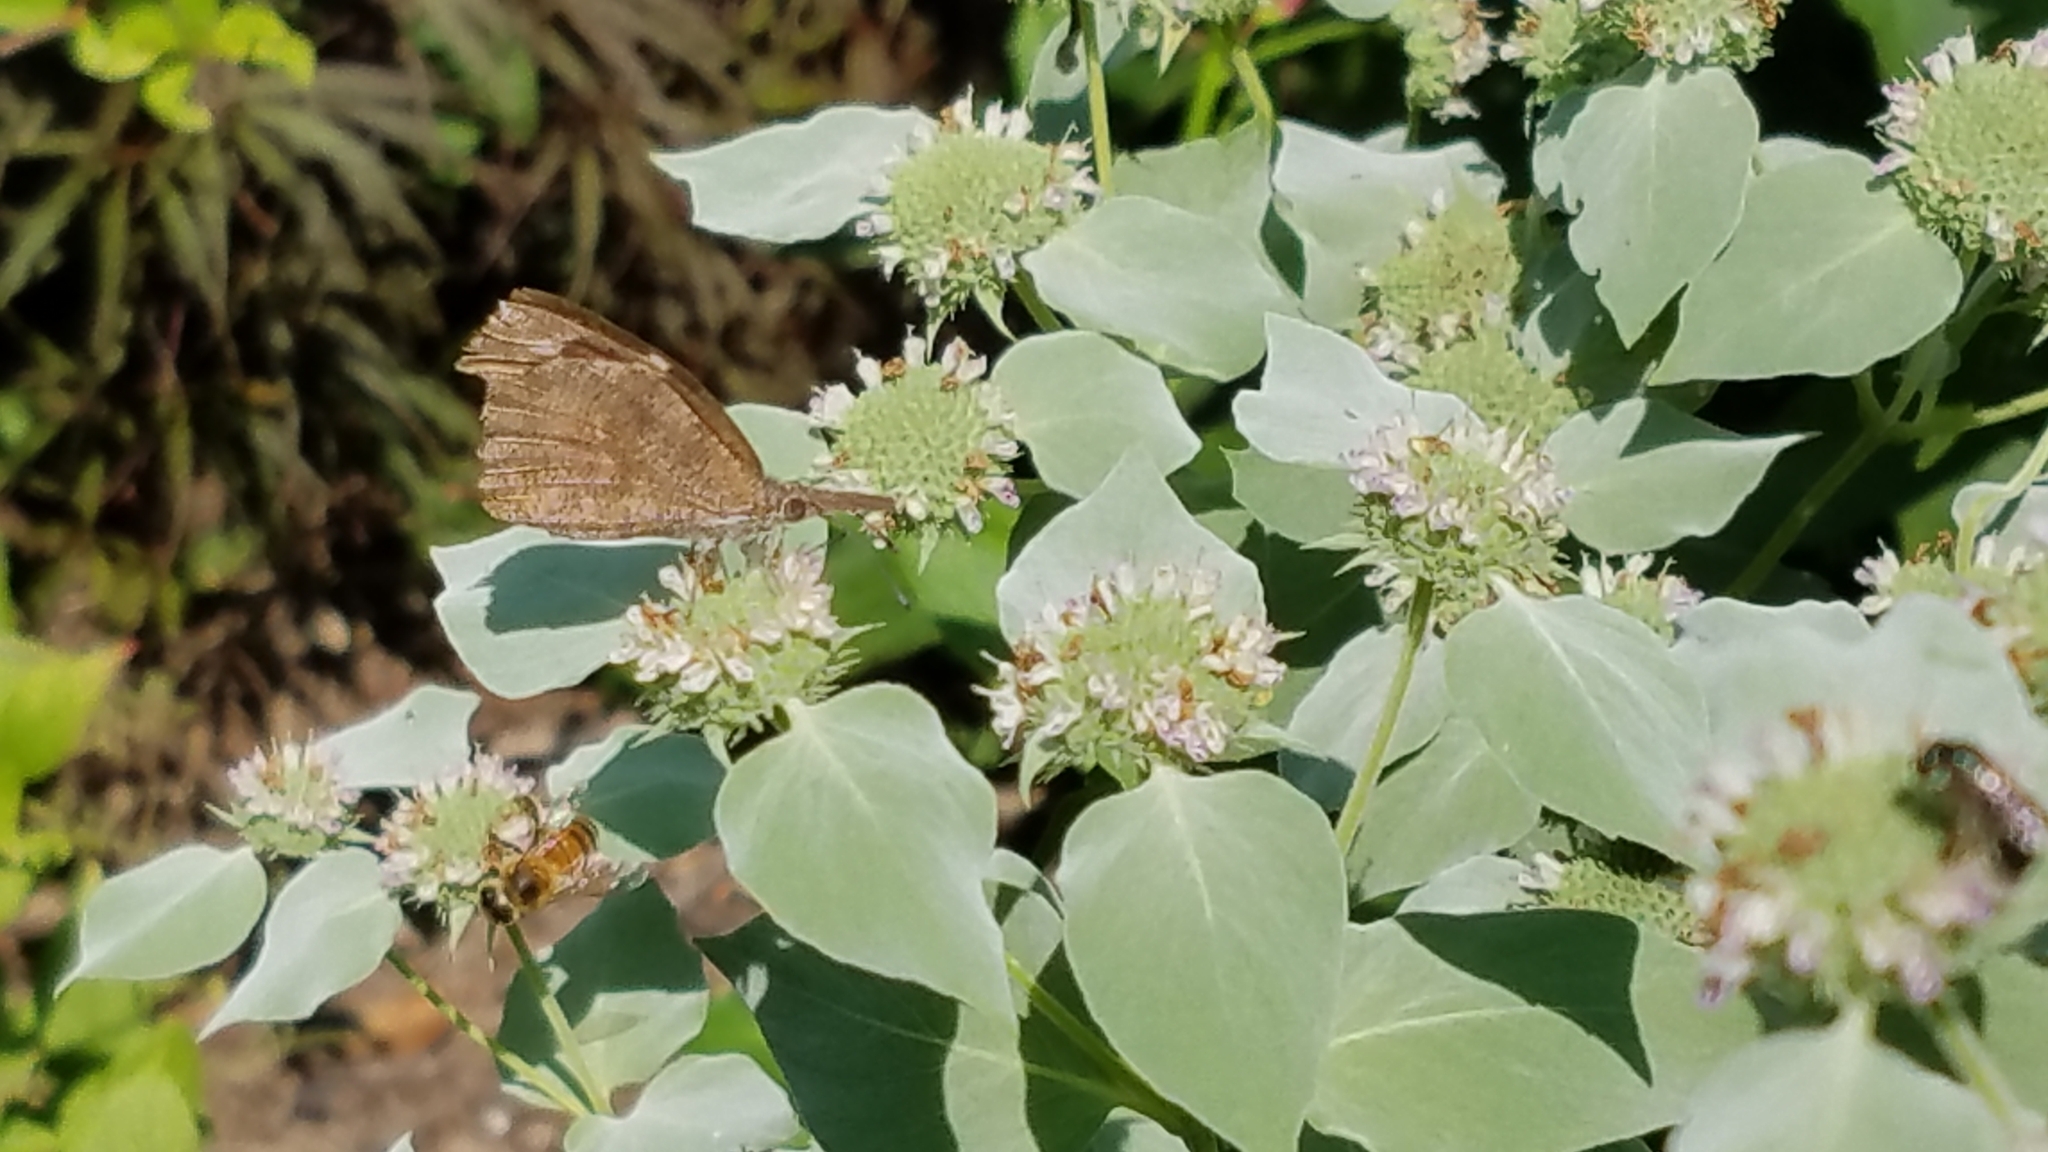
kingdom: Animalia
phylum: Arthropoda
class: Insecta
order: Lepidoptera
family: Nymphalidae
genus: Libytheana
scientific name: Libytheana carinenta
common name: American snout
